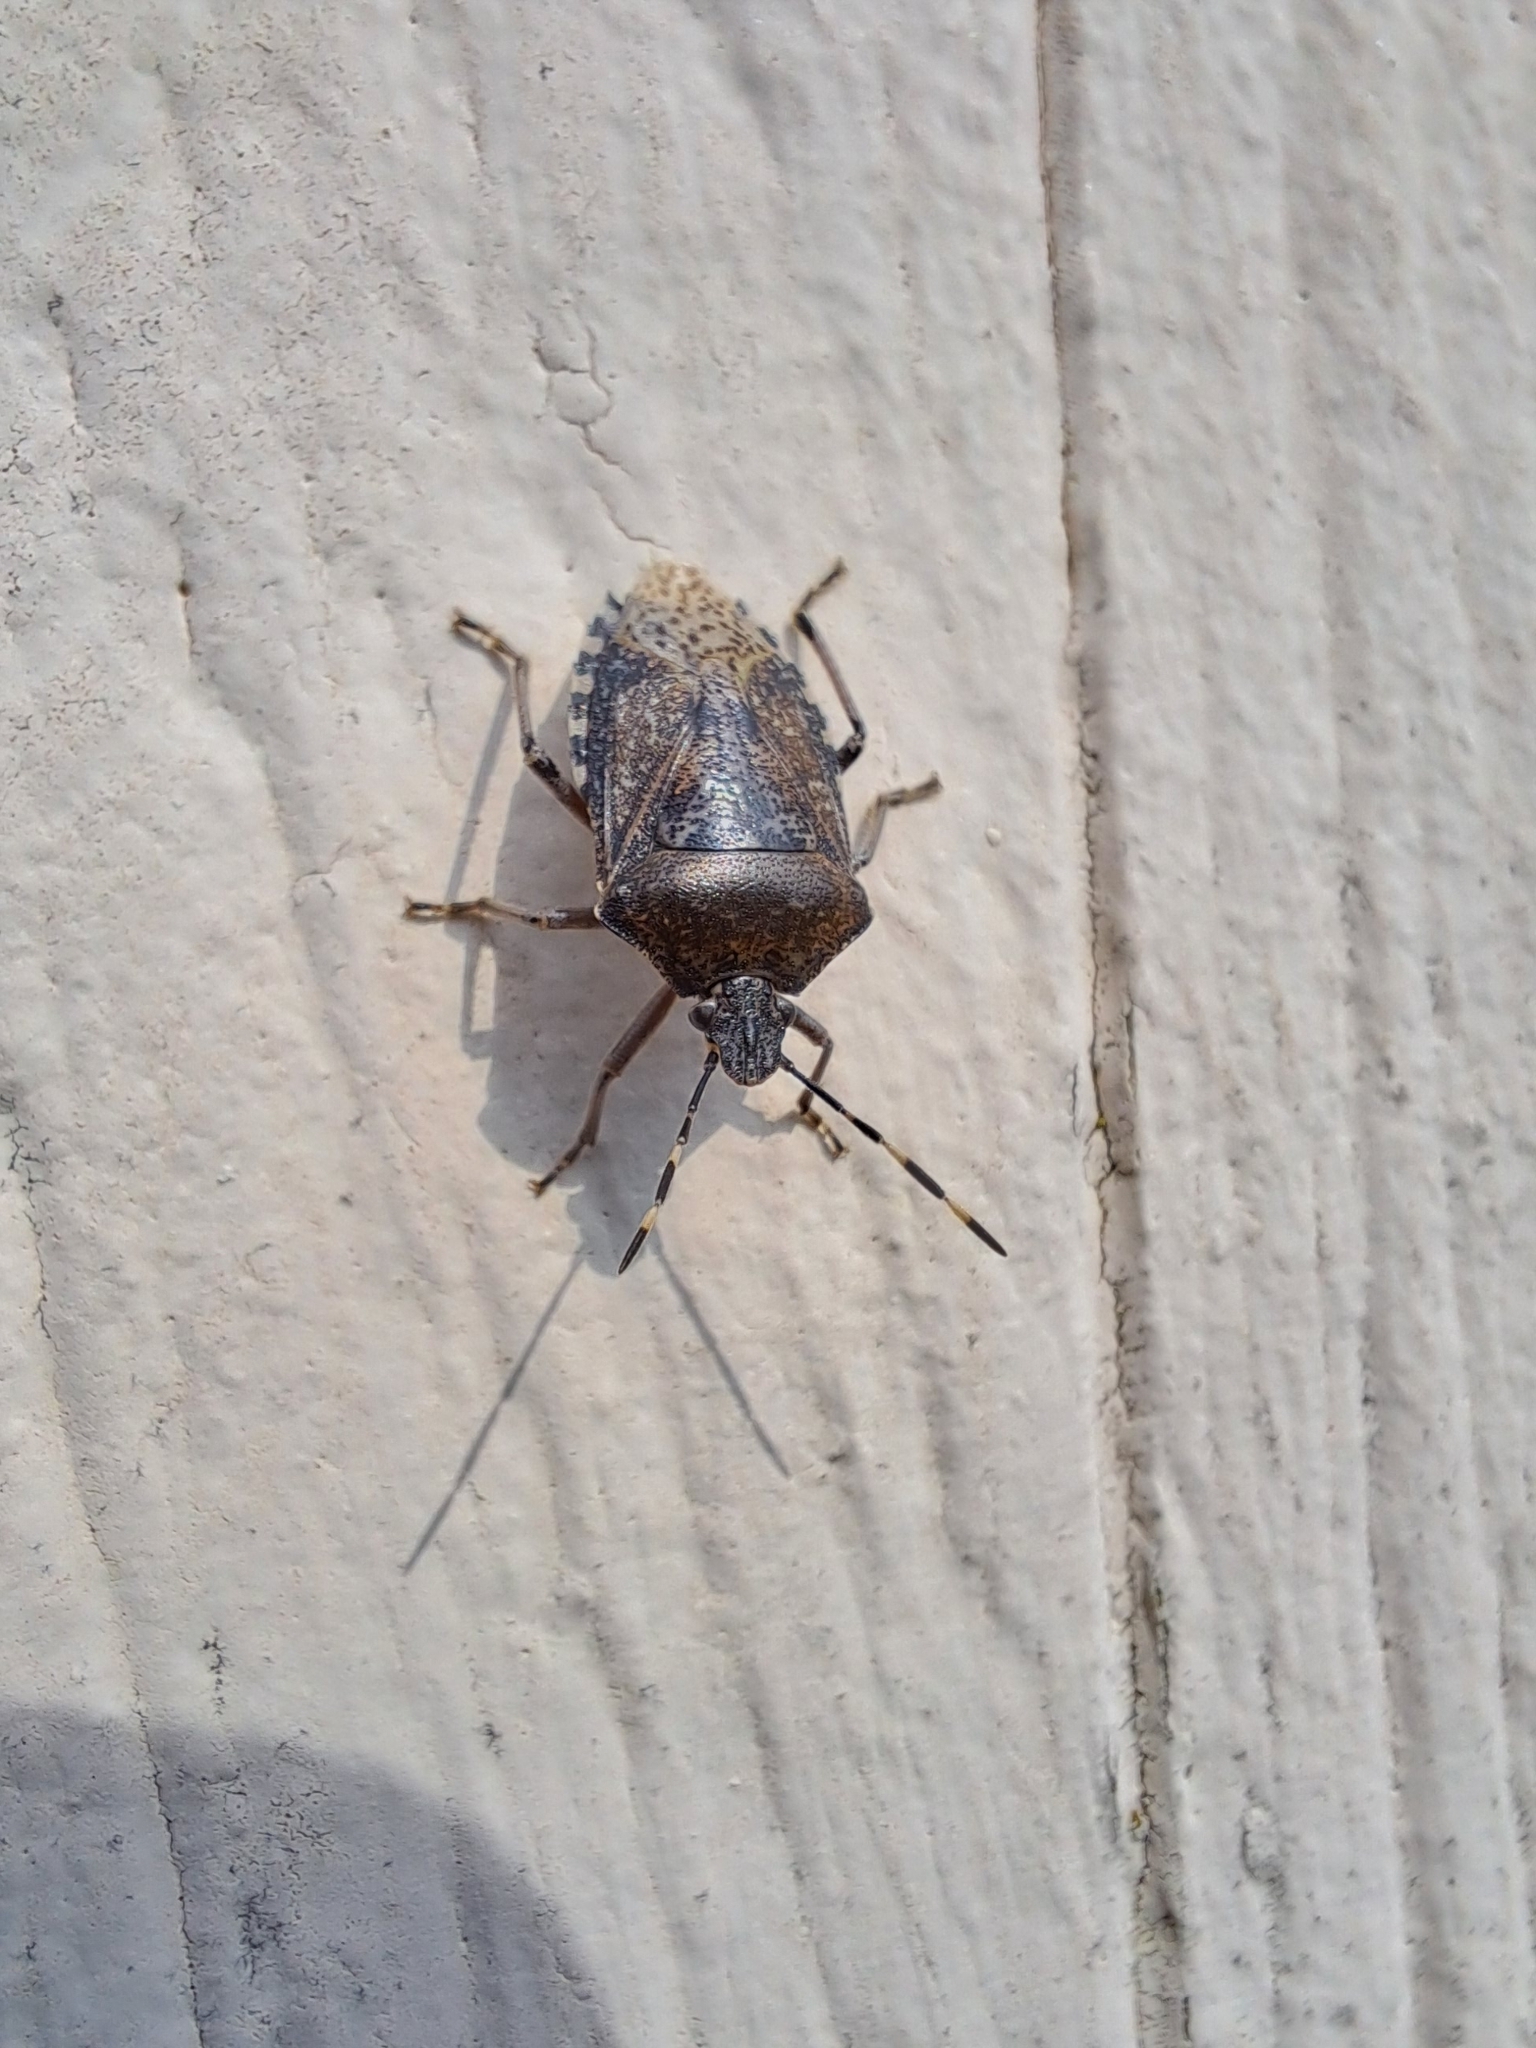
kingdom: Animalia
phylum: Arthropoda
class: Insecta
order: Hemiptera
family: Pentatomidae
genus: Rhaphigaster
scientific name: Rhaphigaster nebulosa
